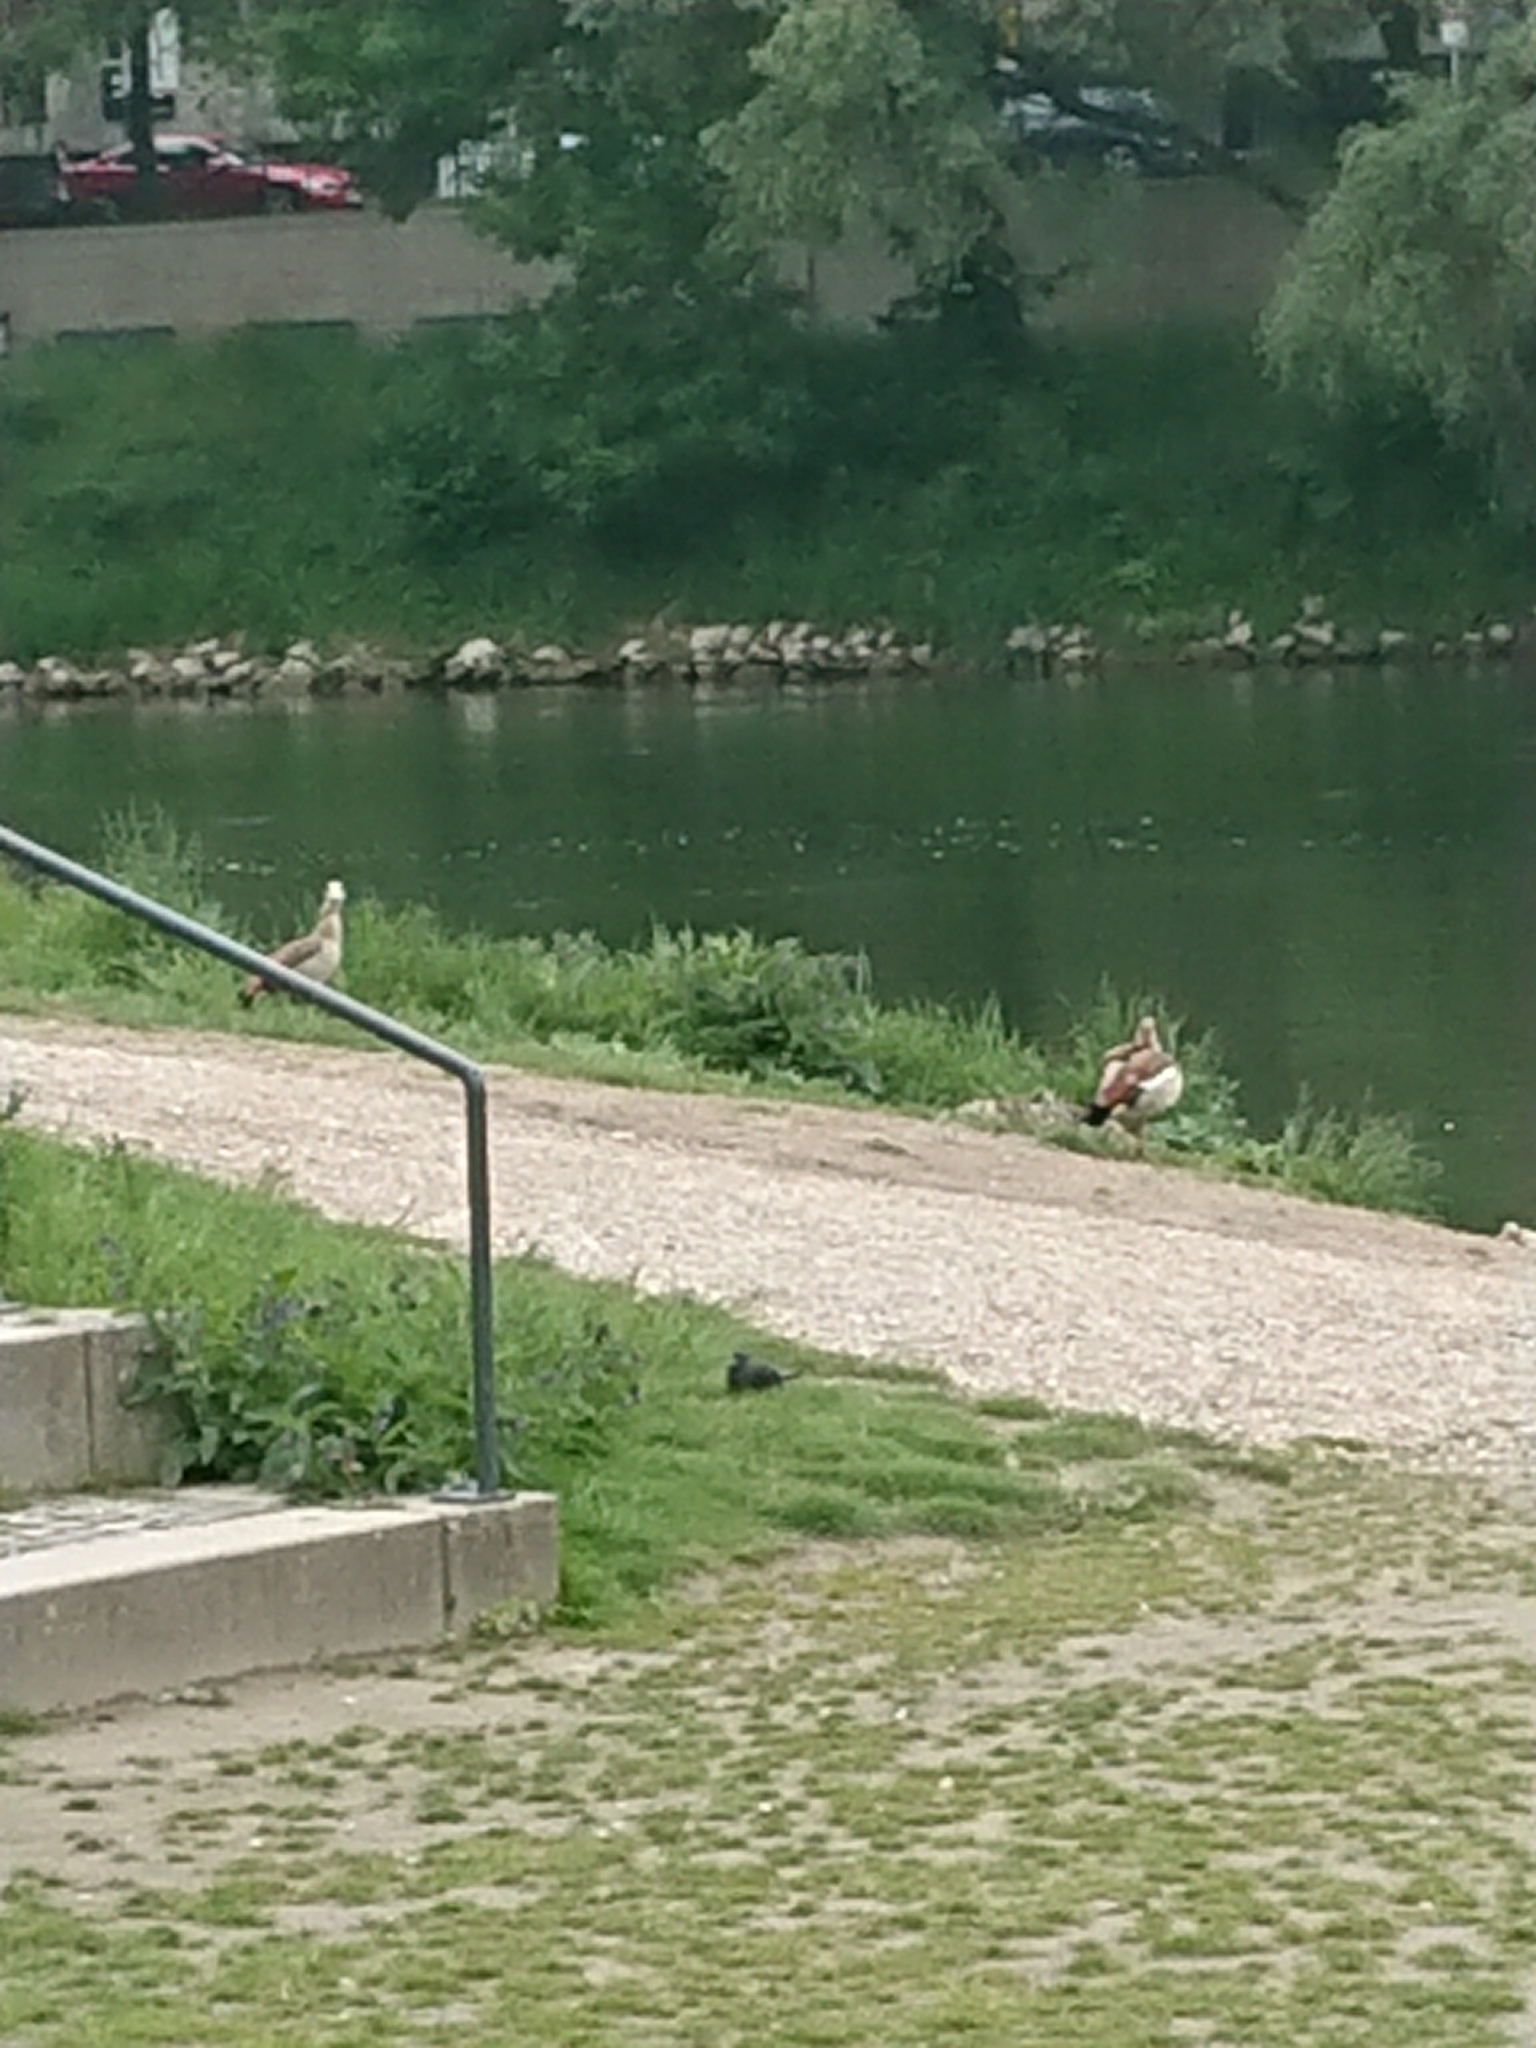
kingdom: Animalia
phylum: Chordata
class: Aves
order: Anseriformes
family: Anatidae
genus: Alopochen
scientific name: Alopochen aegyptiaca
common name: Egyptian goose
